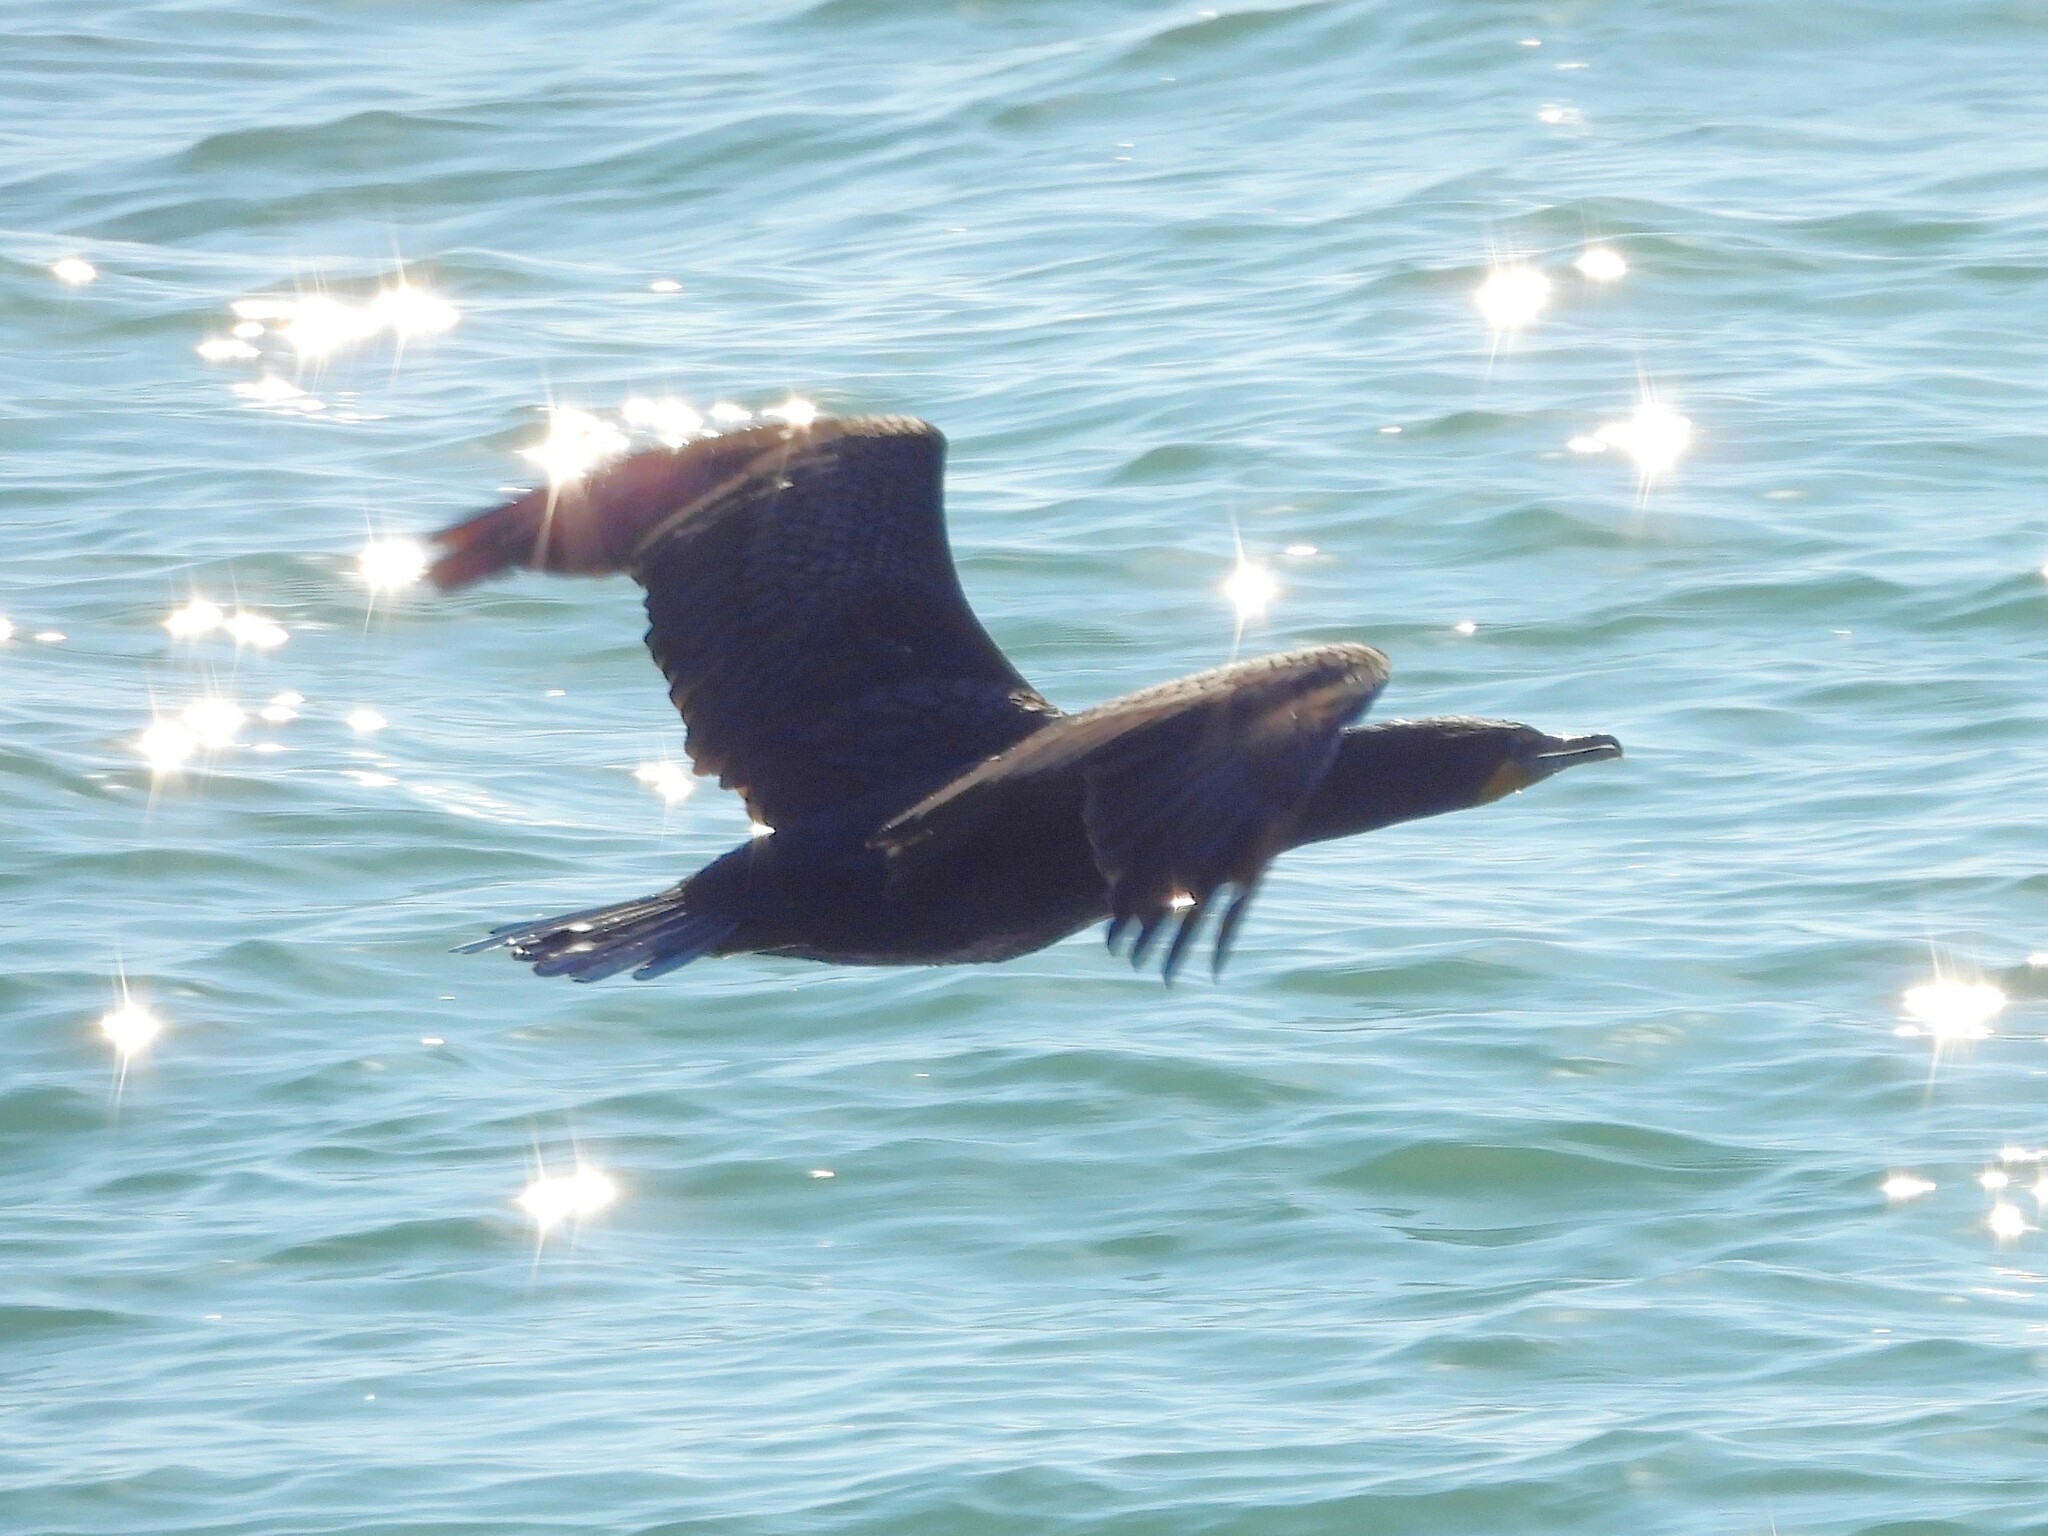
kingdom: Animalia
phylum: Chordata
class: Aves
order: Suliformes
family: Phalacrocoracidae
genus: Phalacrocorax
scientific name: Phalacrocorax auritus
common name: Double-crested cormorant
